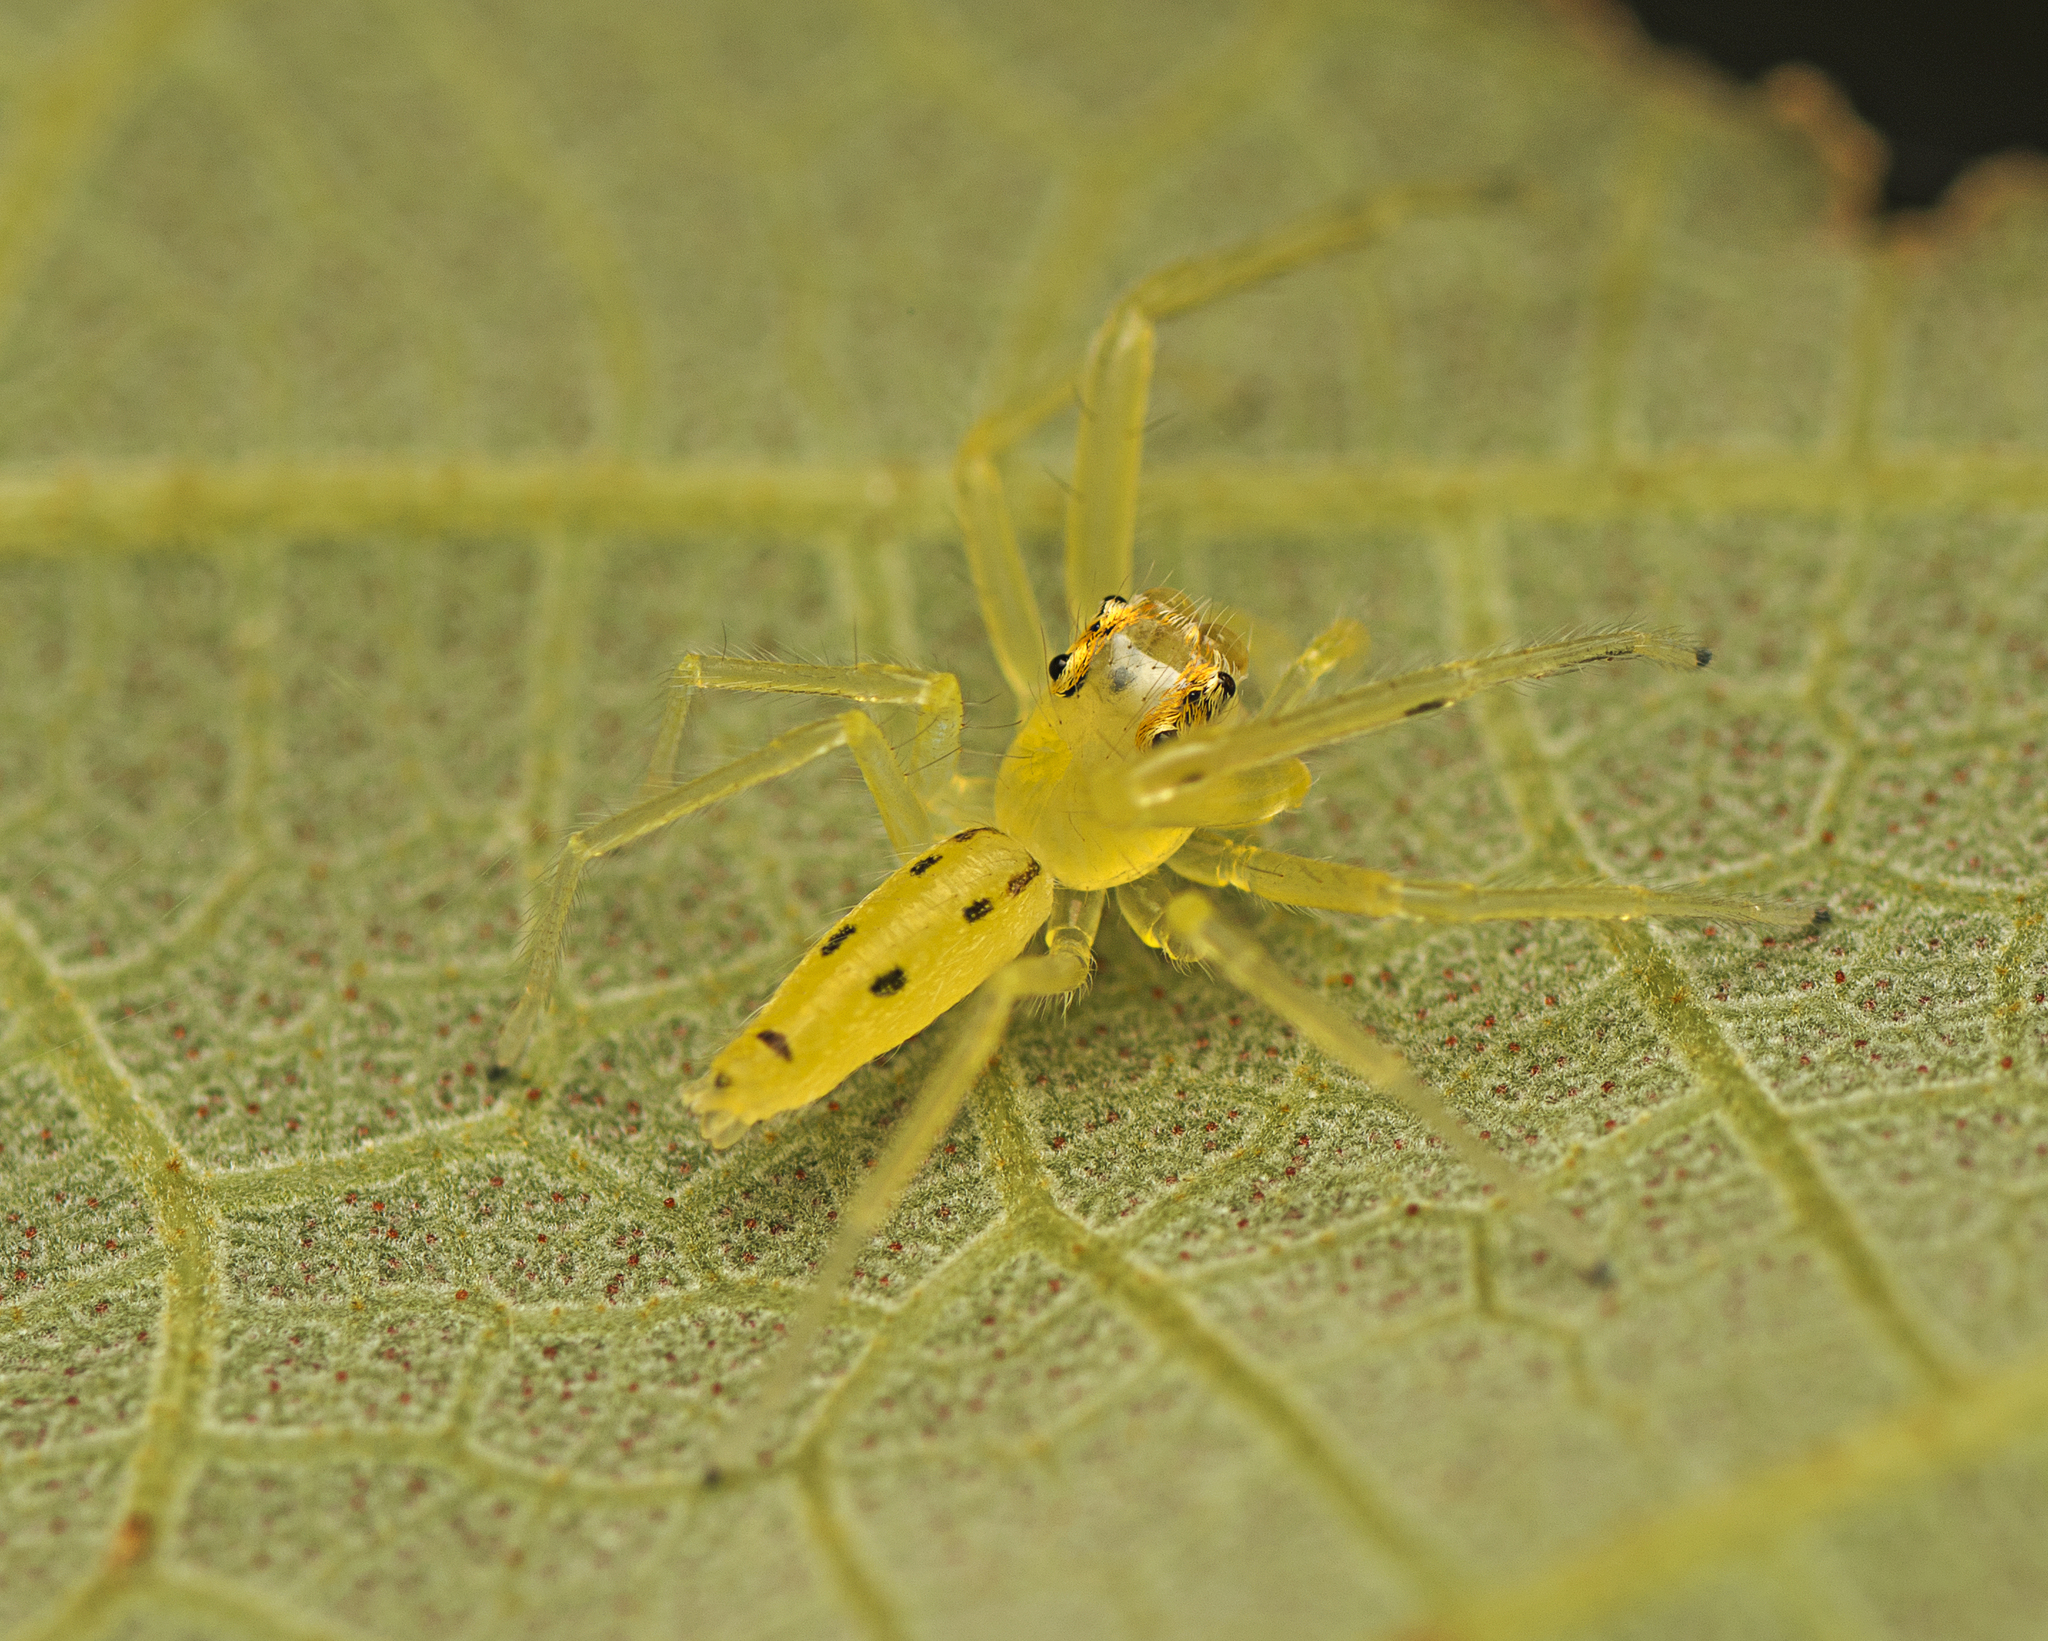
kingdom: Animalia
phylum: Arthropoda
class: Arachnida
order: Araneae
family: Salticidae
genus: Astilodes
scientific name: Astilodes mariae
